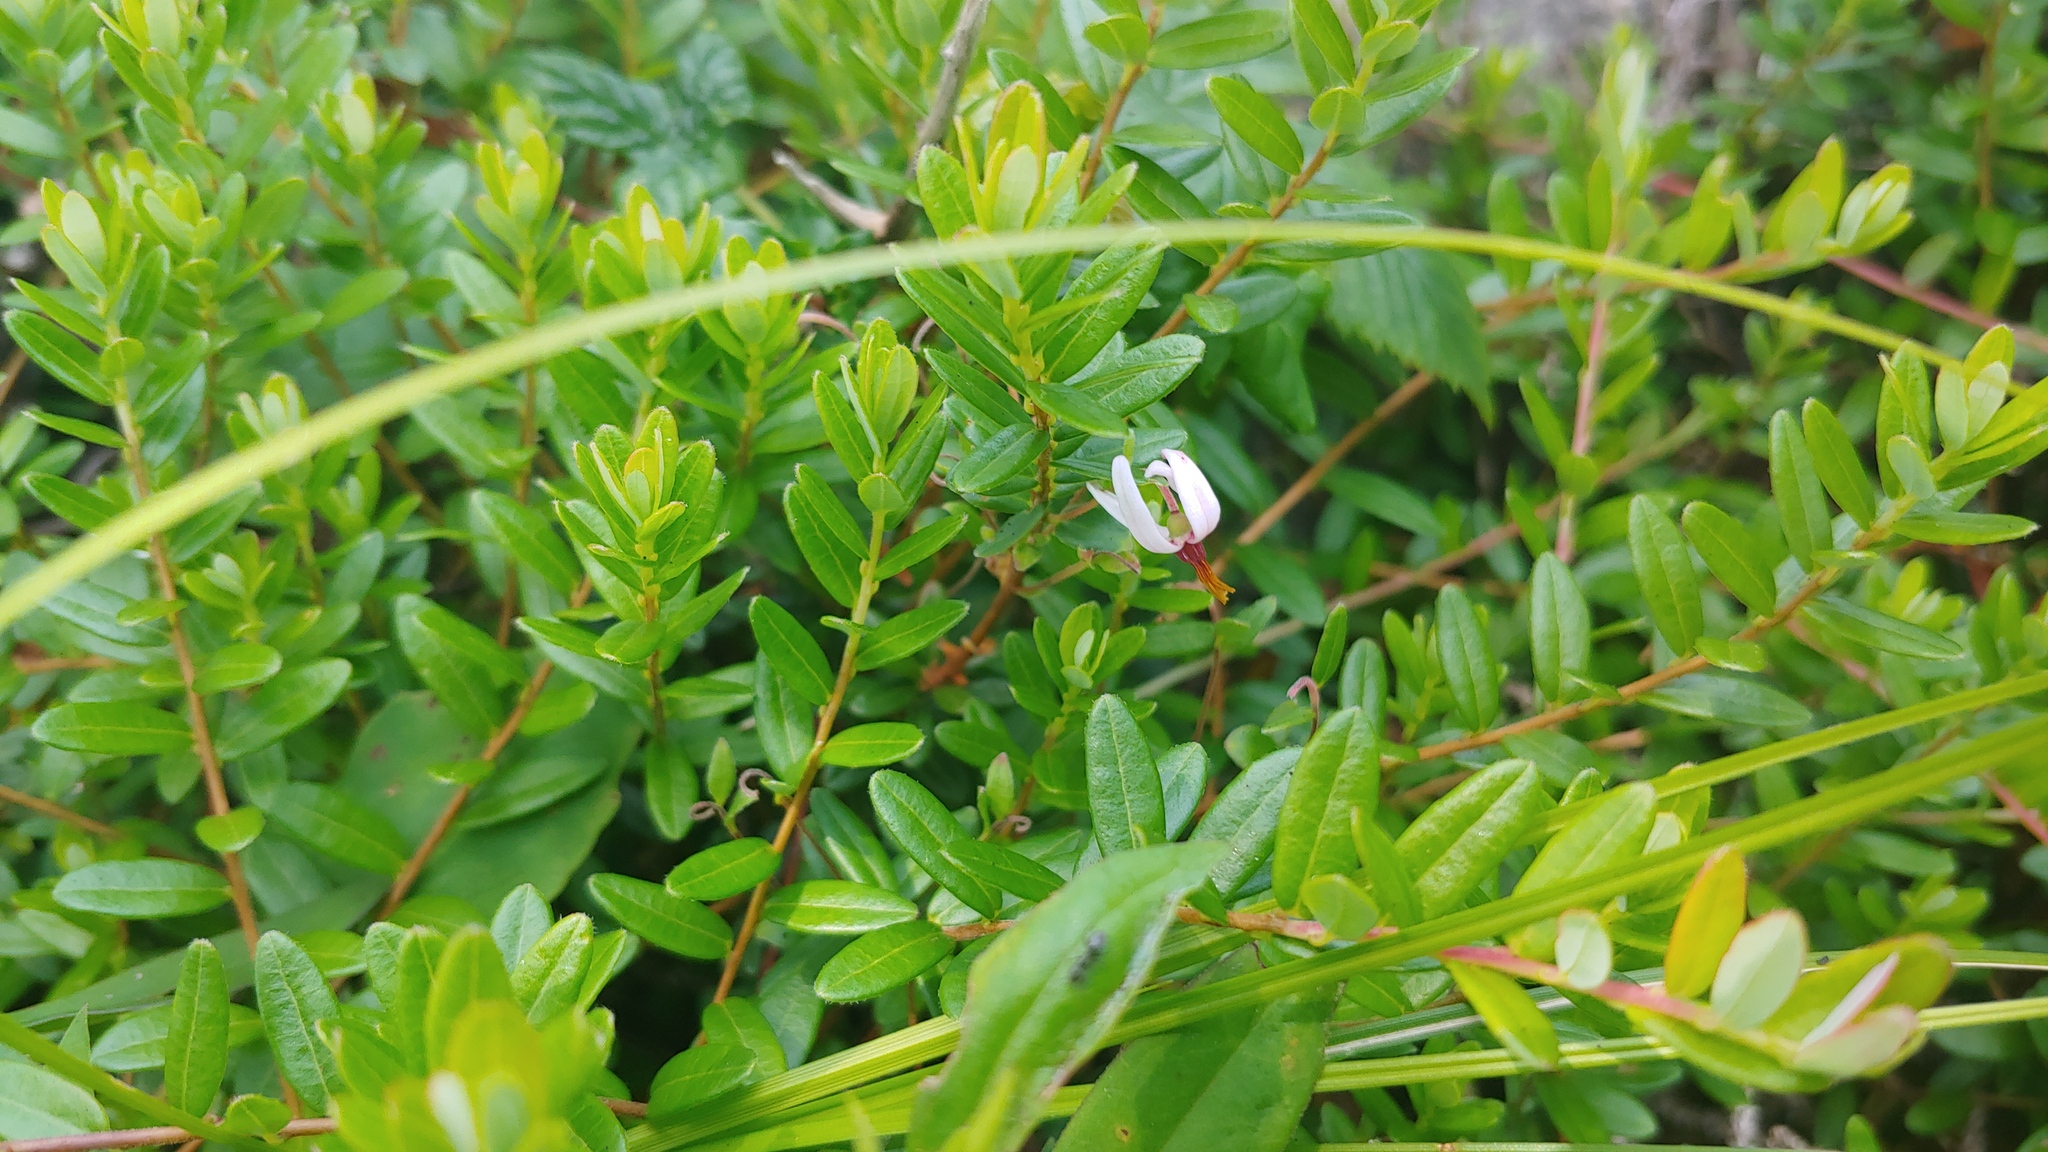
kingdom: Plantae
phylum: Tracheophyta
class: Magnoliopsida
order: Ericales
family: Ericaceae
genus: Vaccinium
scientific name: Vaccinium macrocarpon
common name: American cranberry
